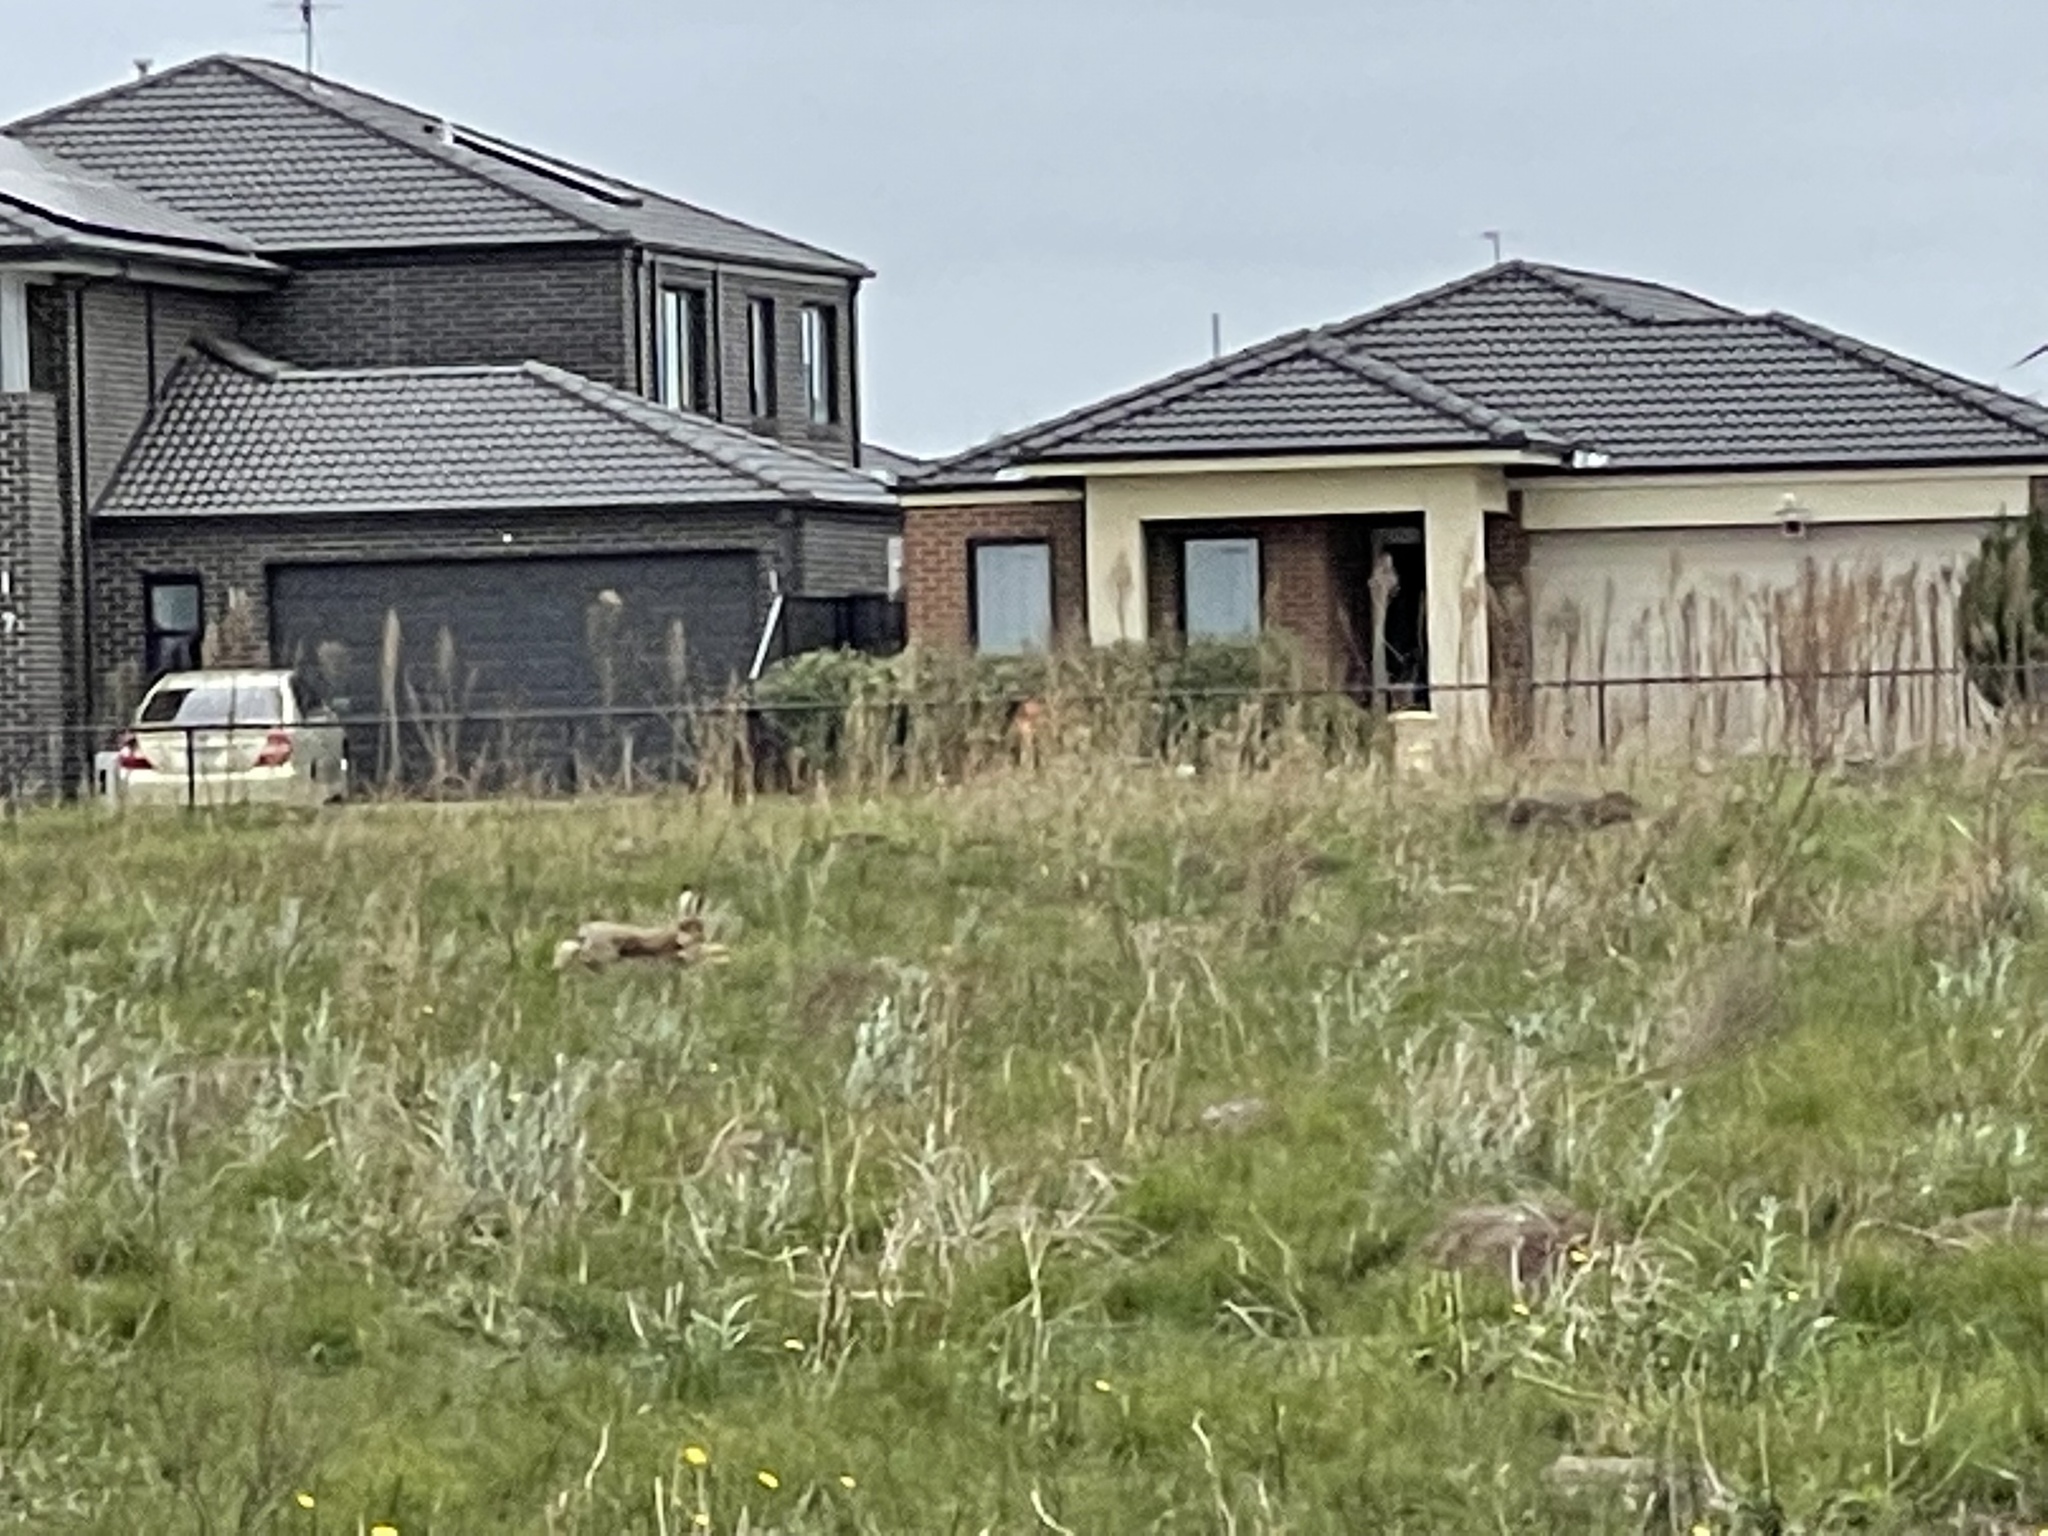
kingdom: Animalia
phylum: Chordata
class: Mammalia
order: Lagomorpha
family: Leporidae
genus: Oryctolagus
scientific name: Oryctolagus cuniculus
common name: European rabbit
